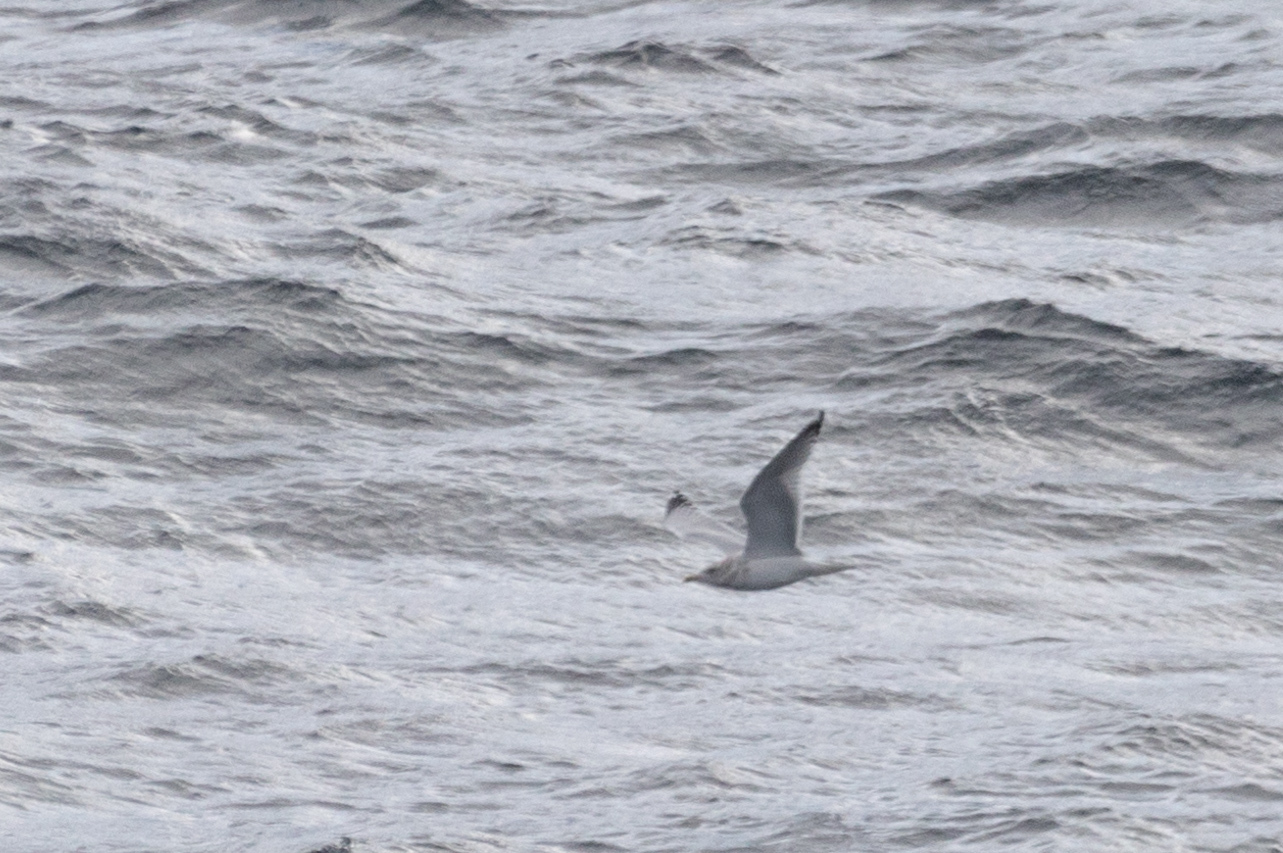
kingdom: Animalia
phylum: Chordata
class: Aves
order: Charadriiformes
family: Laridae
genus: Larus
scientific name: Larus argentatus
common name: Herring gull
